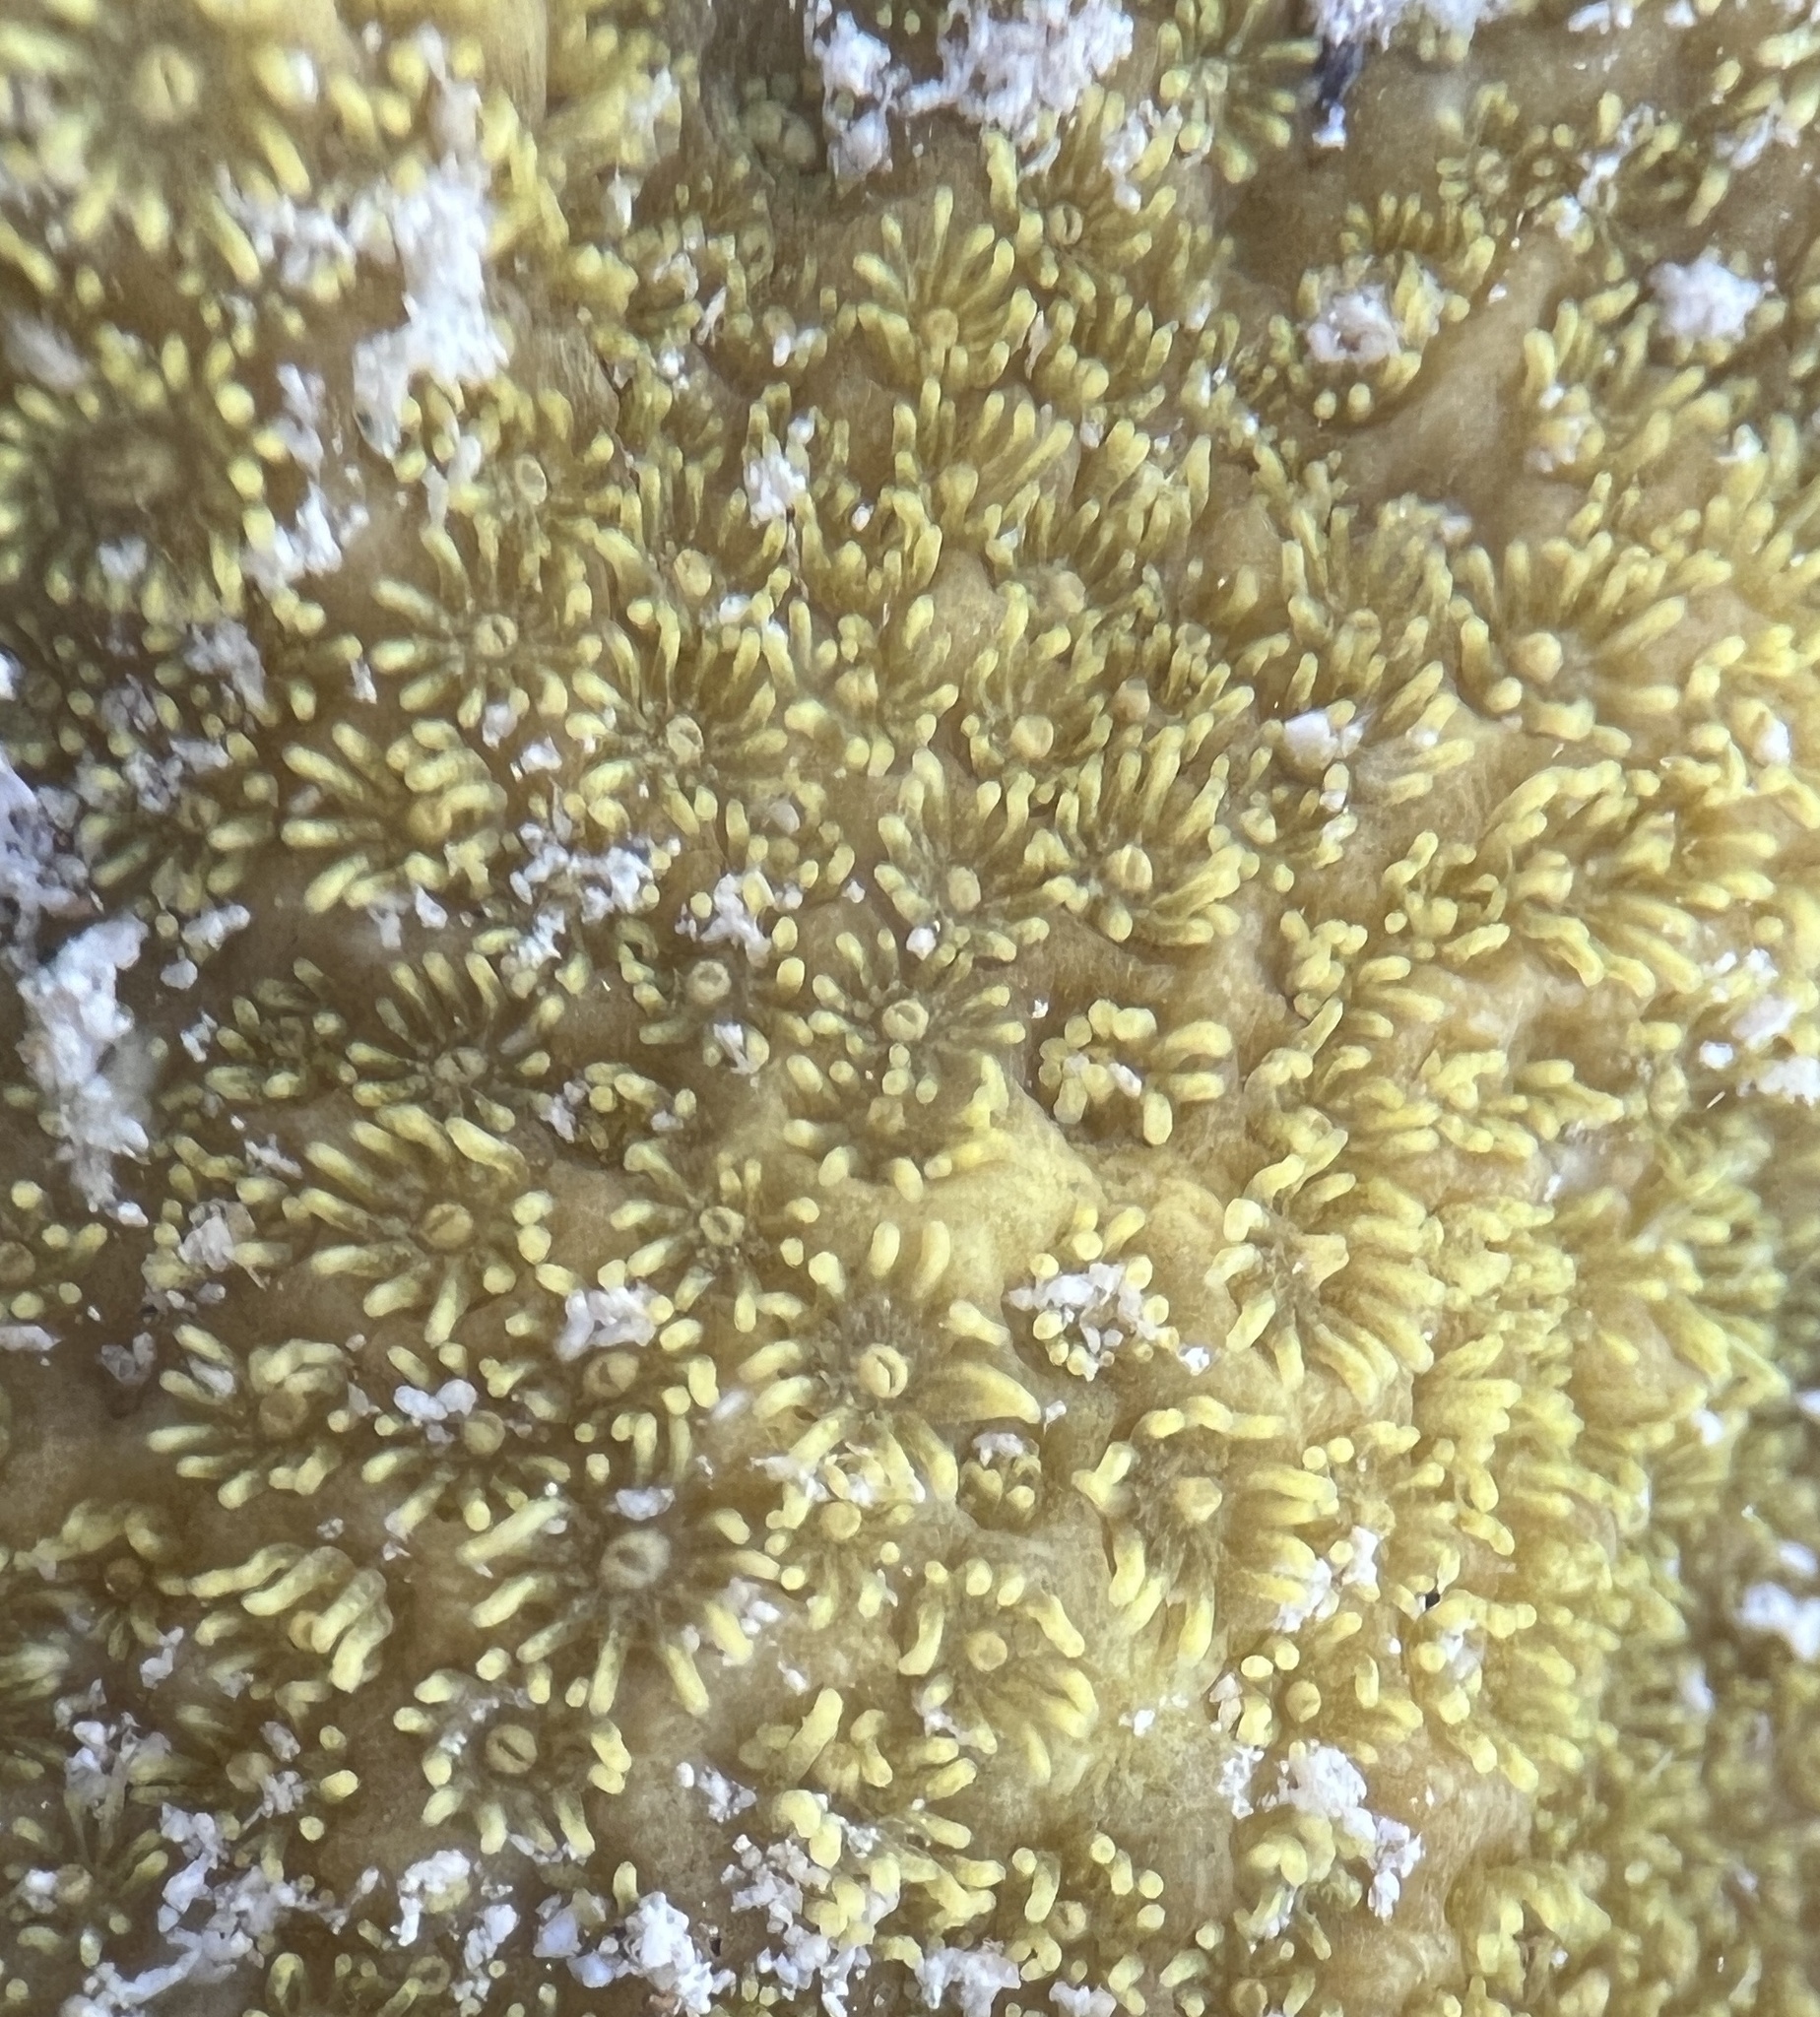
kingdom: Animalia
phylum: Cnidaria
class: Anthozoa
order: Scleractinia
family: Poritidae
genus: Porites
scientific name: Porites astreoides
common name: Mustard hill coral
